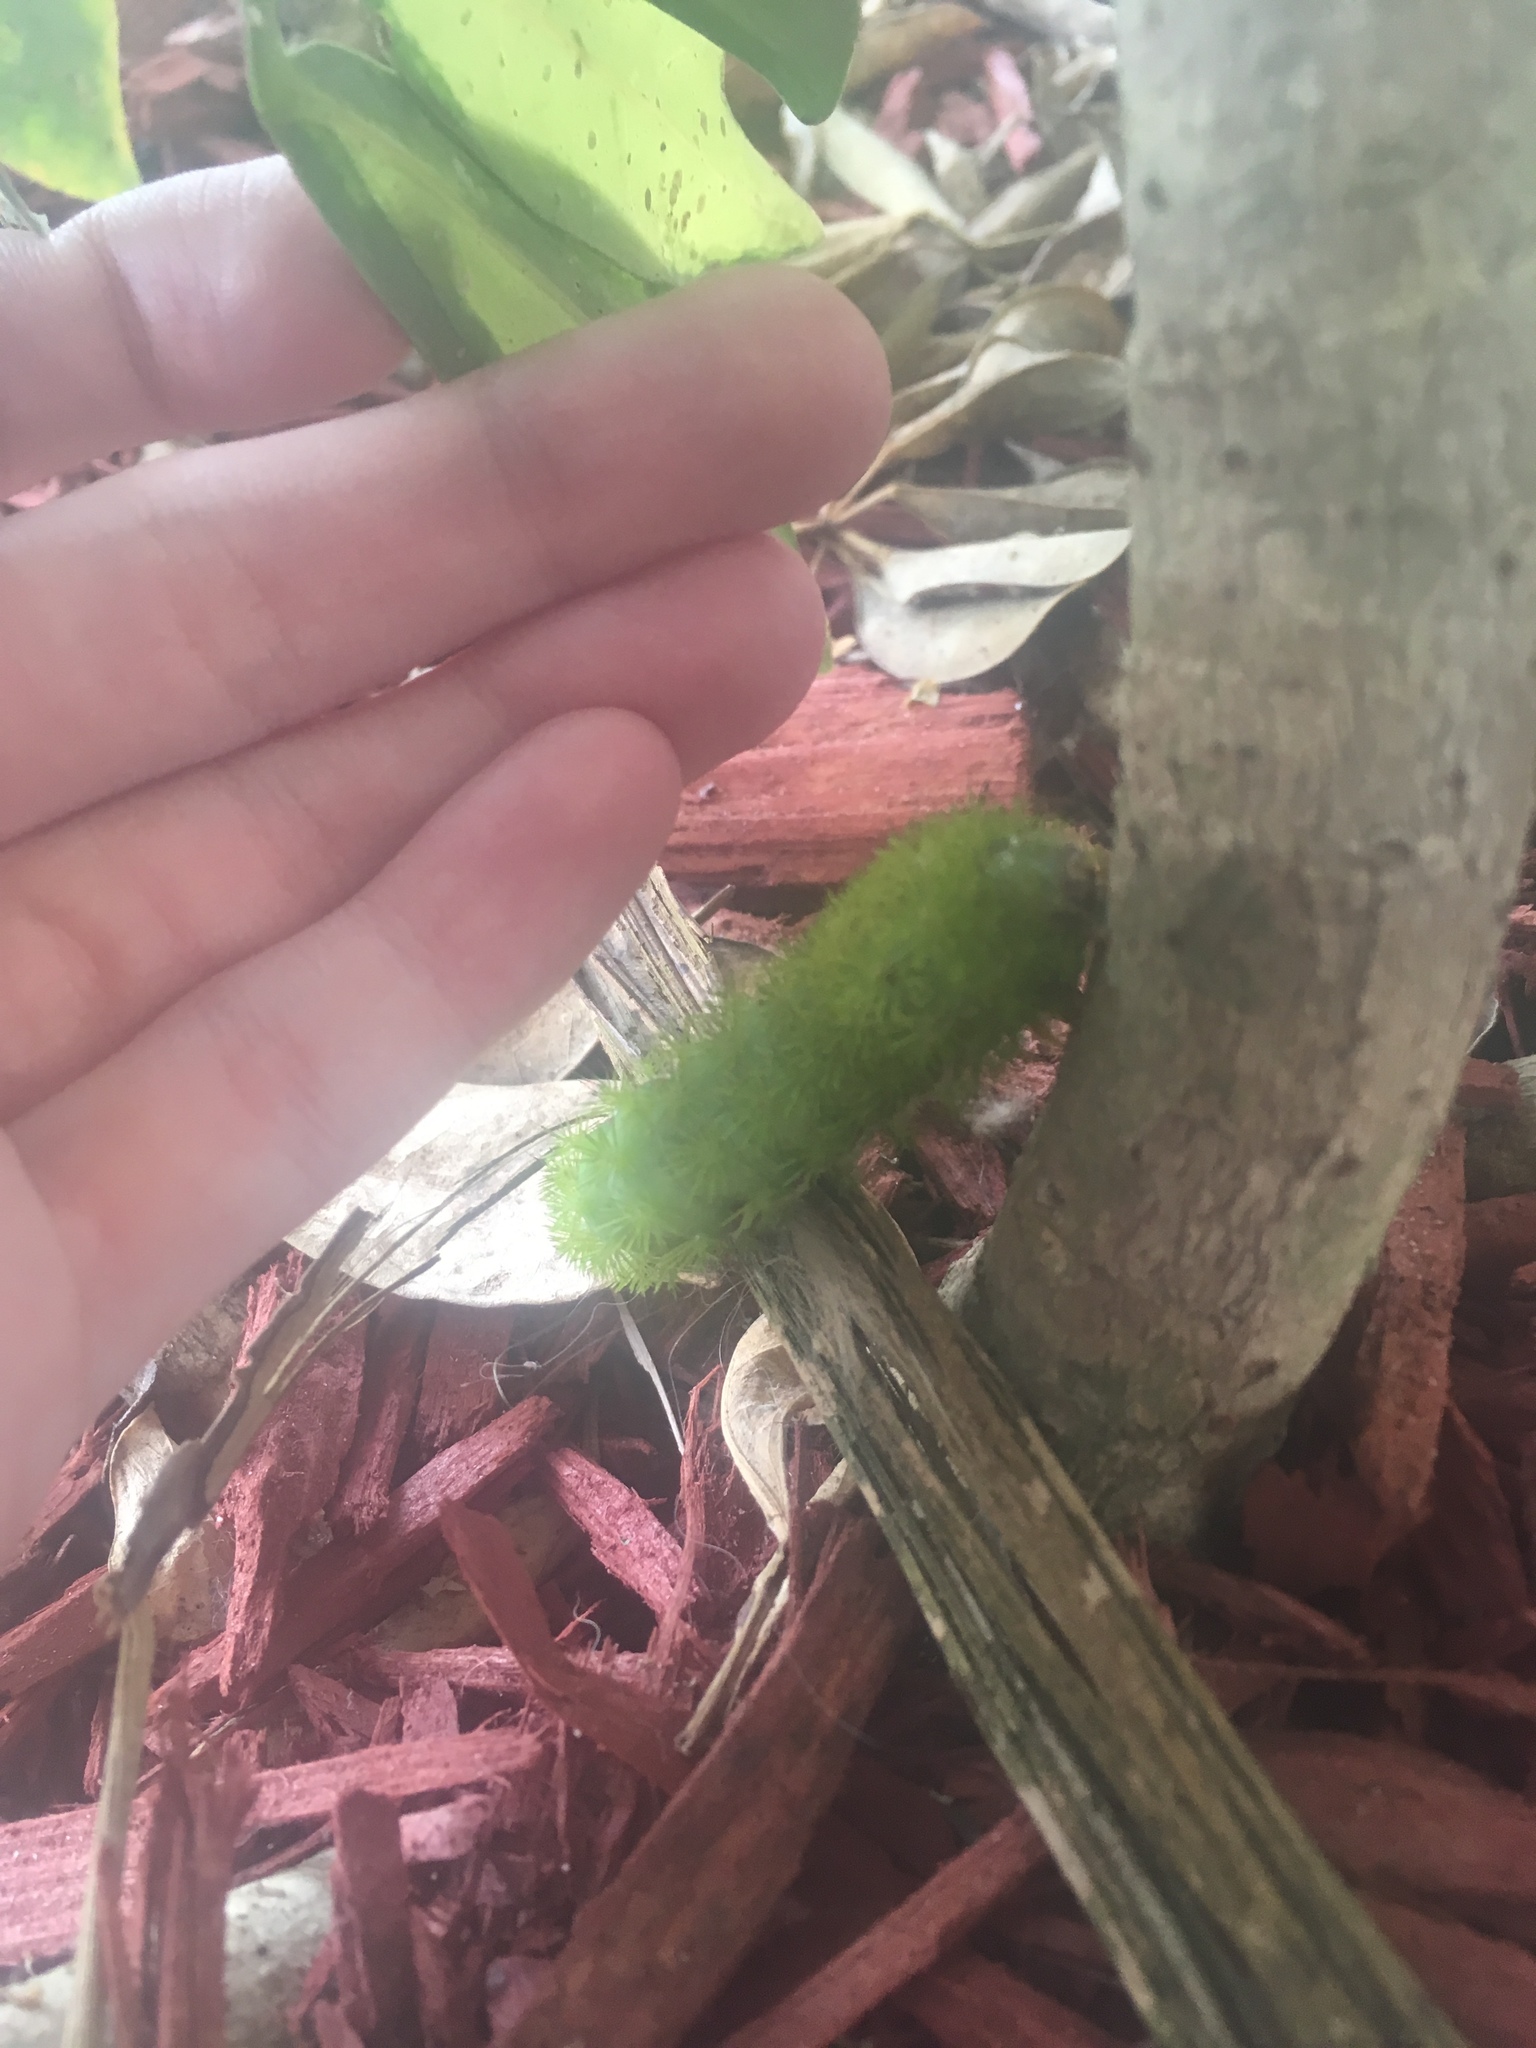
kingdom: Animalia
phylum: Arthropoda
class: Insecta
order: Lepidoptera
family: Saturniidae
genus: Automeris
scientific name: Automeris io
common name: Io moth
